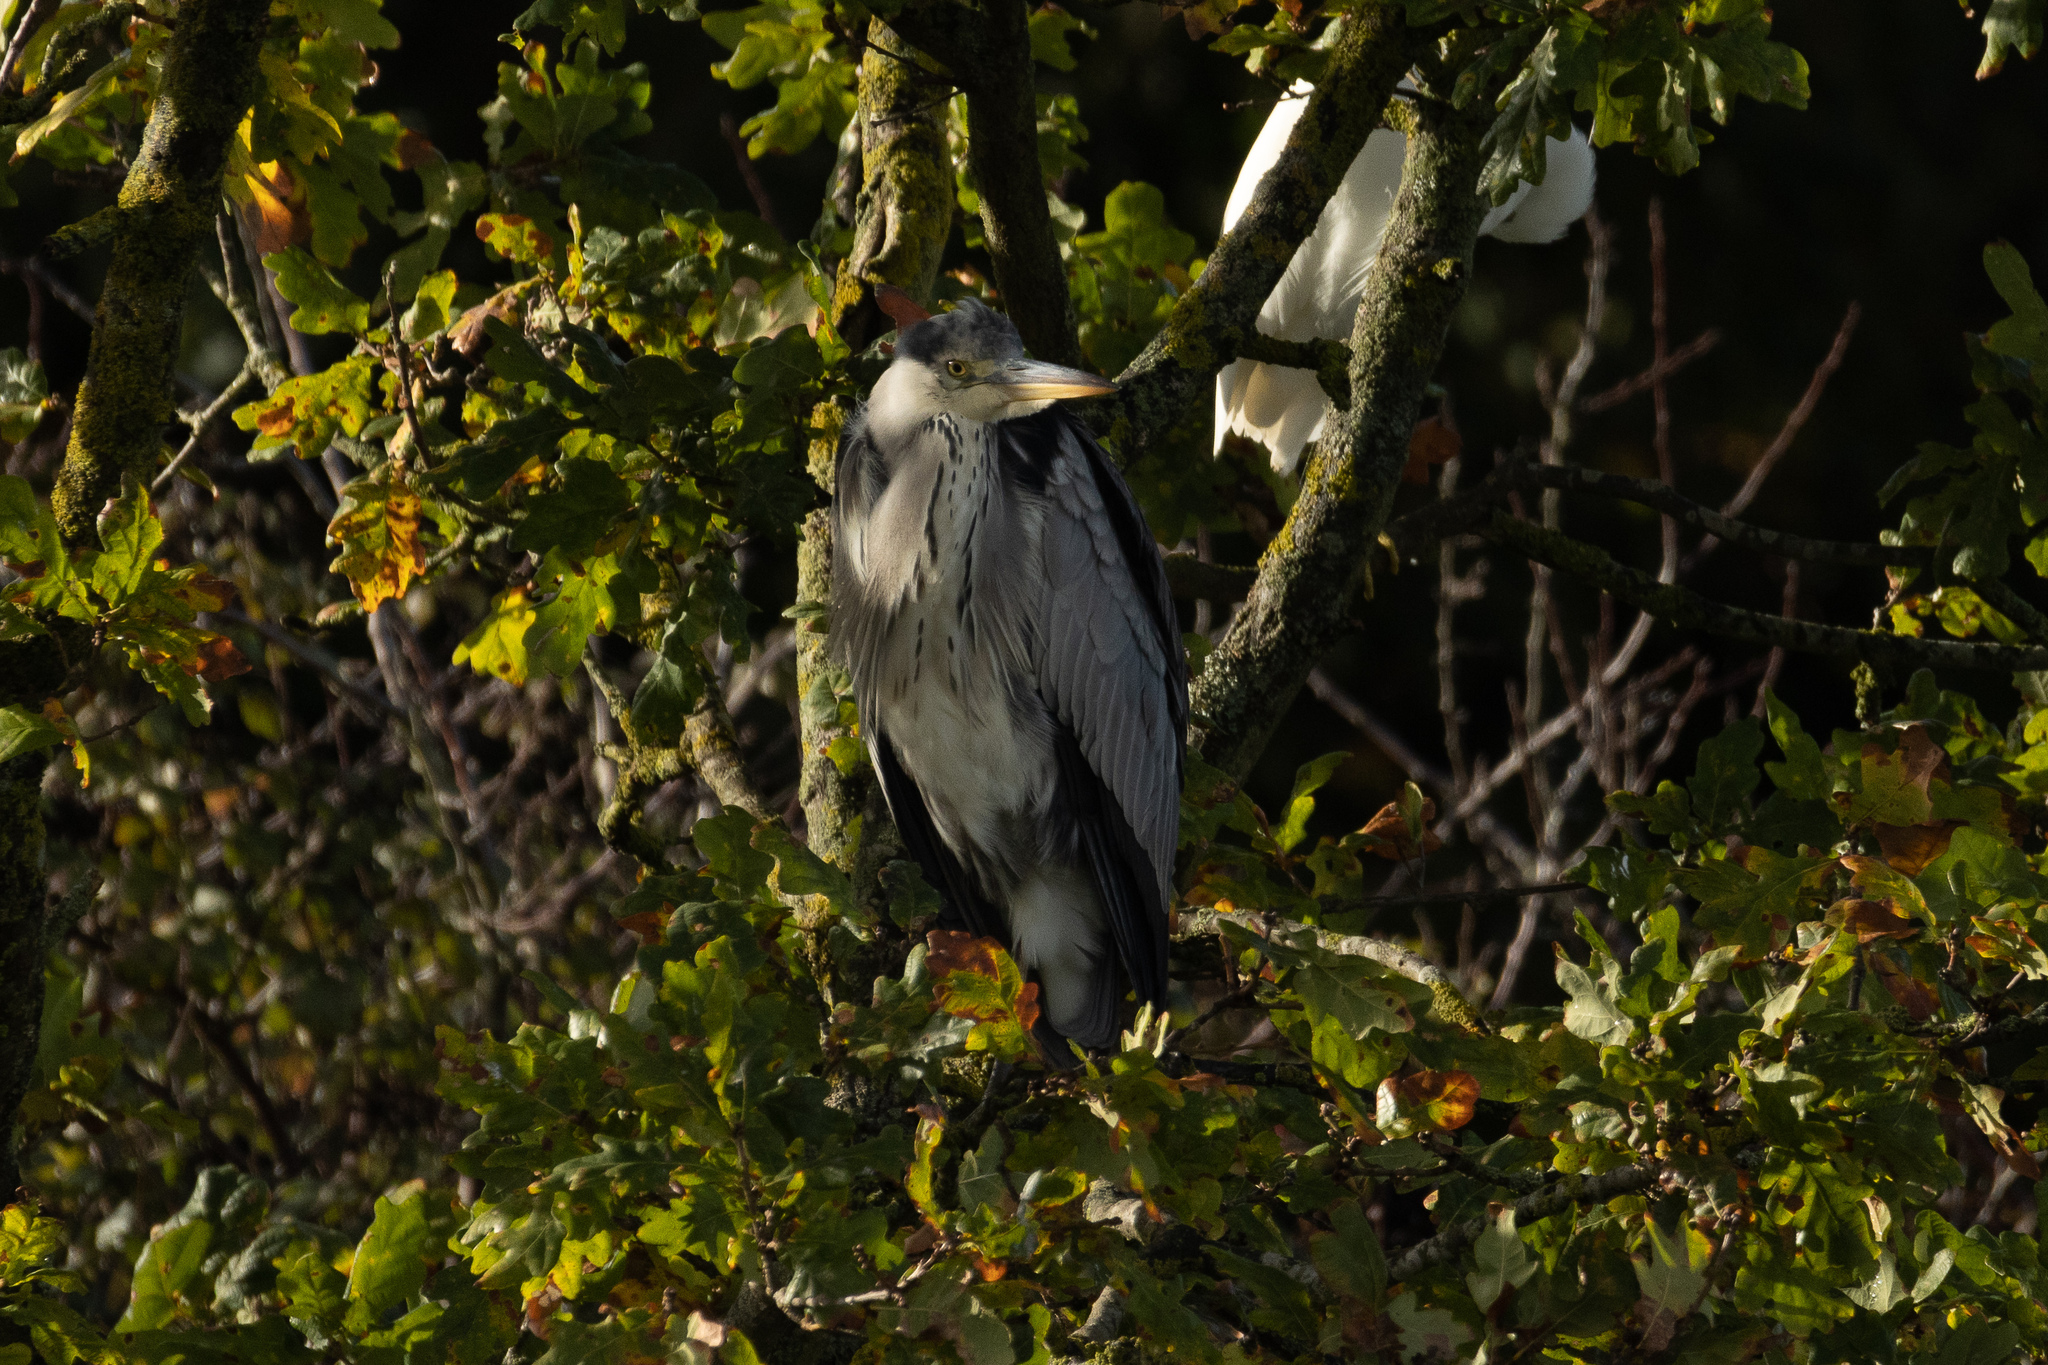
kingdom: Animalia
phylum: Chordata
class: Aves
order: Pelecaniformes
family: Ardeidae
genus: Ardea
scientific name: Ardea cinerea
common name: Grey heron
